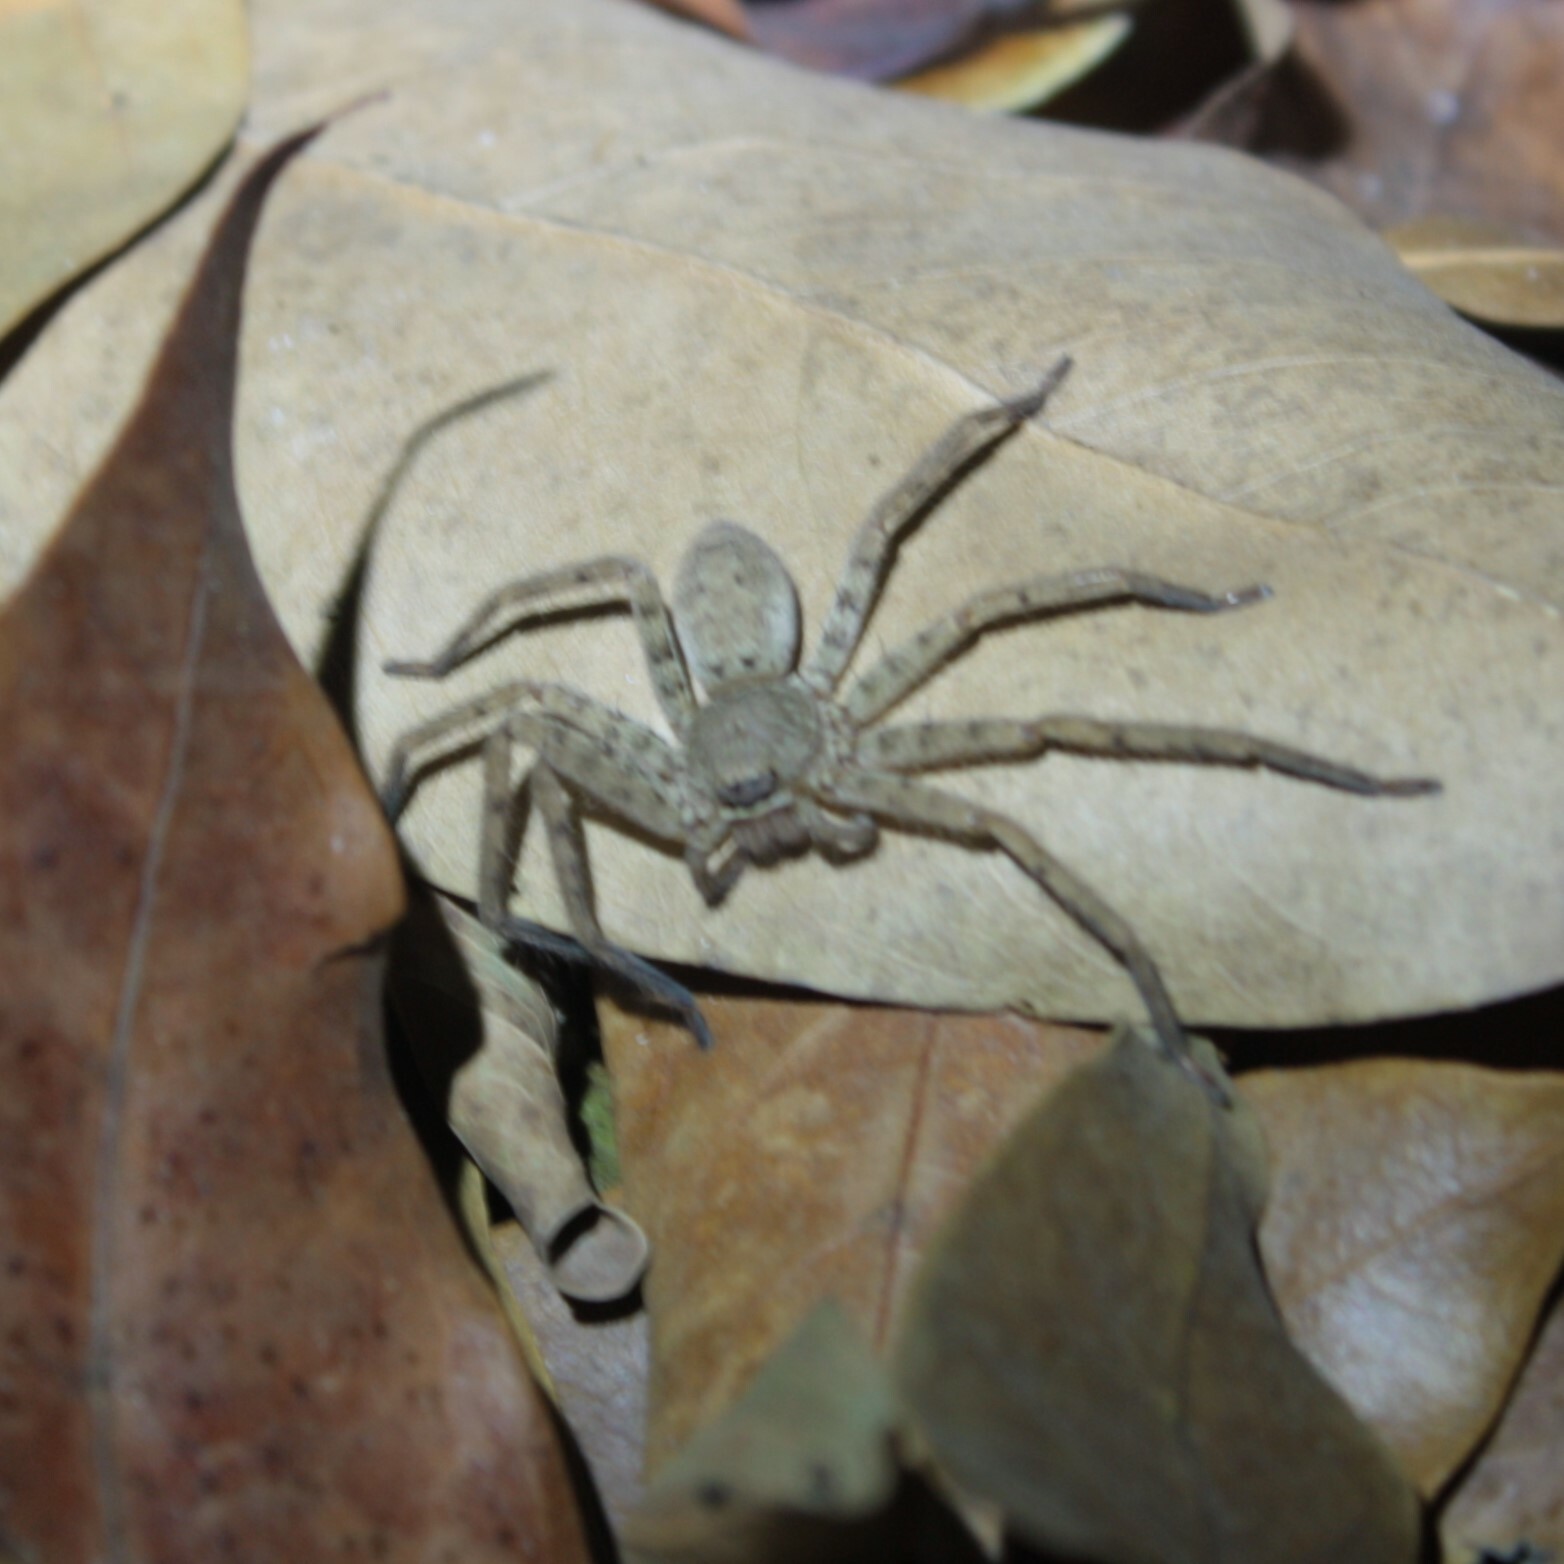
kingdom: Animalia
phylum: Arthropoda
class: Arachnida
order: Araneae
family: Sparassidae
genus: Heteropoda
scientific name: Heteropoda venatoria
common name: Huntsman spider
